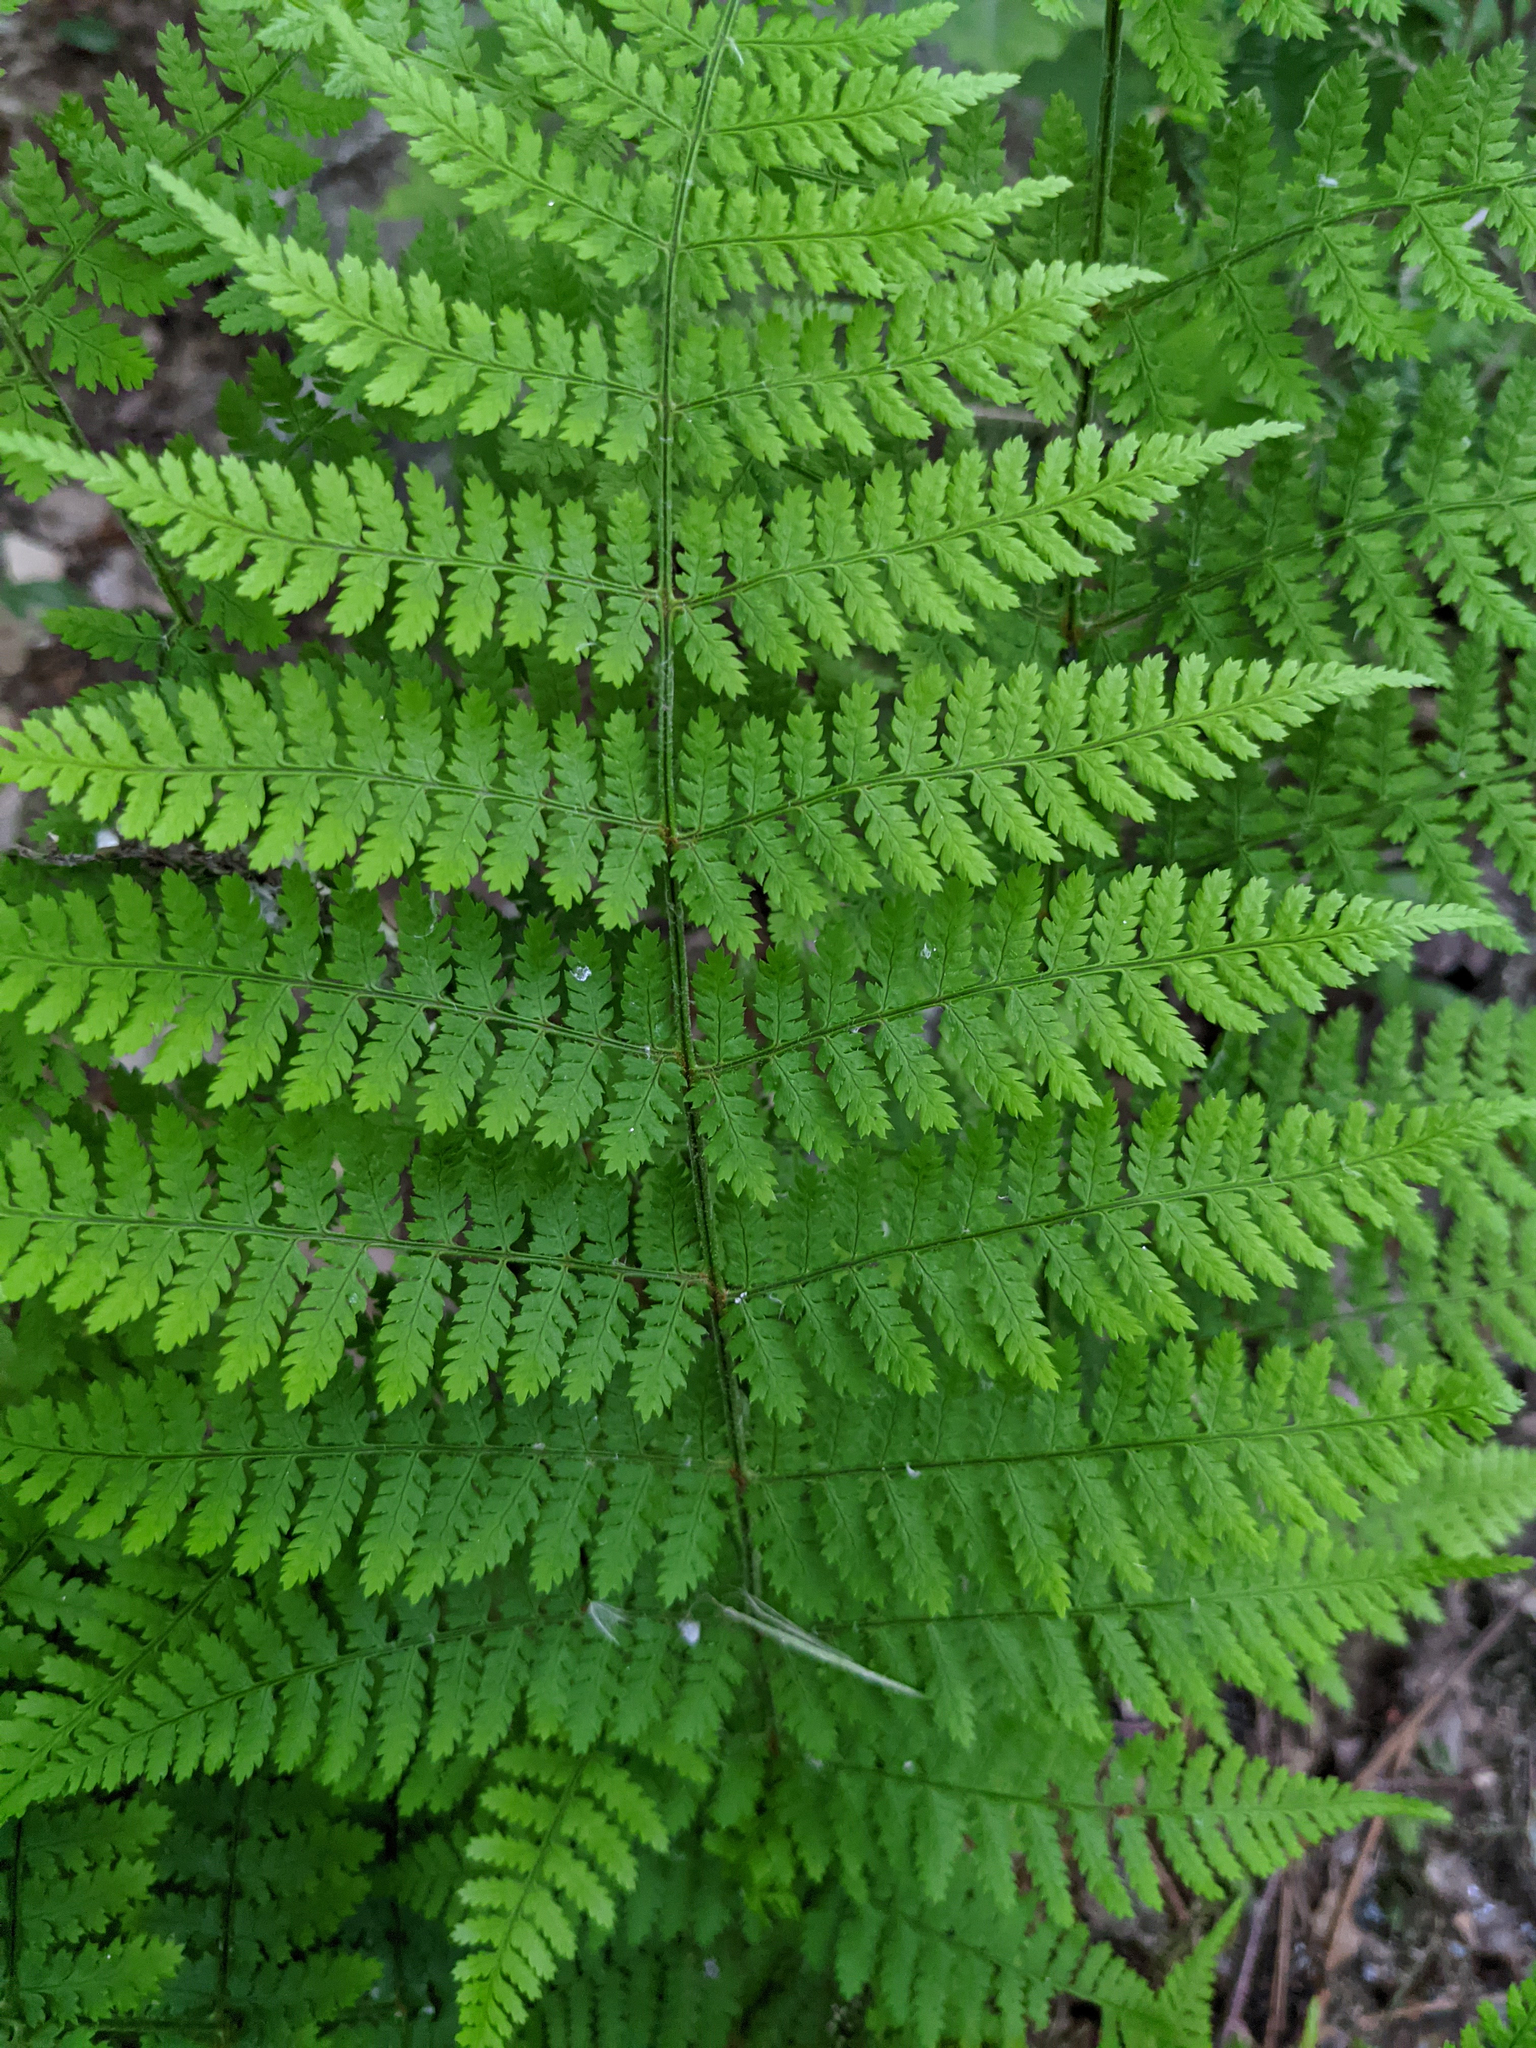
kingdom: Plantae
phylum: Tracheophyta
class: Polypodiopsida
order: Polypodiales
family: Dryopteridaceae
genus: Dryopteris
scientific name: Dryopteris intermedia
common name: Evergreen wood fern
